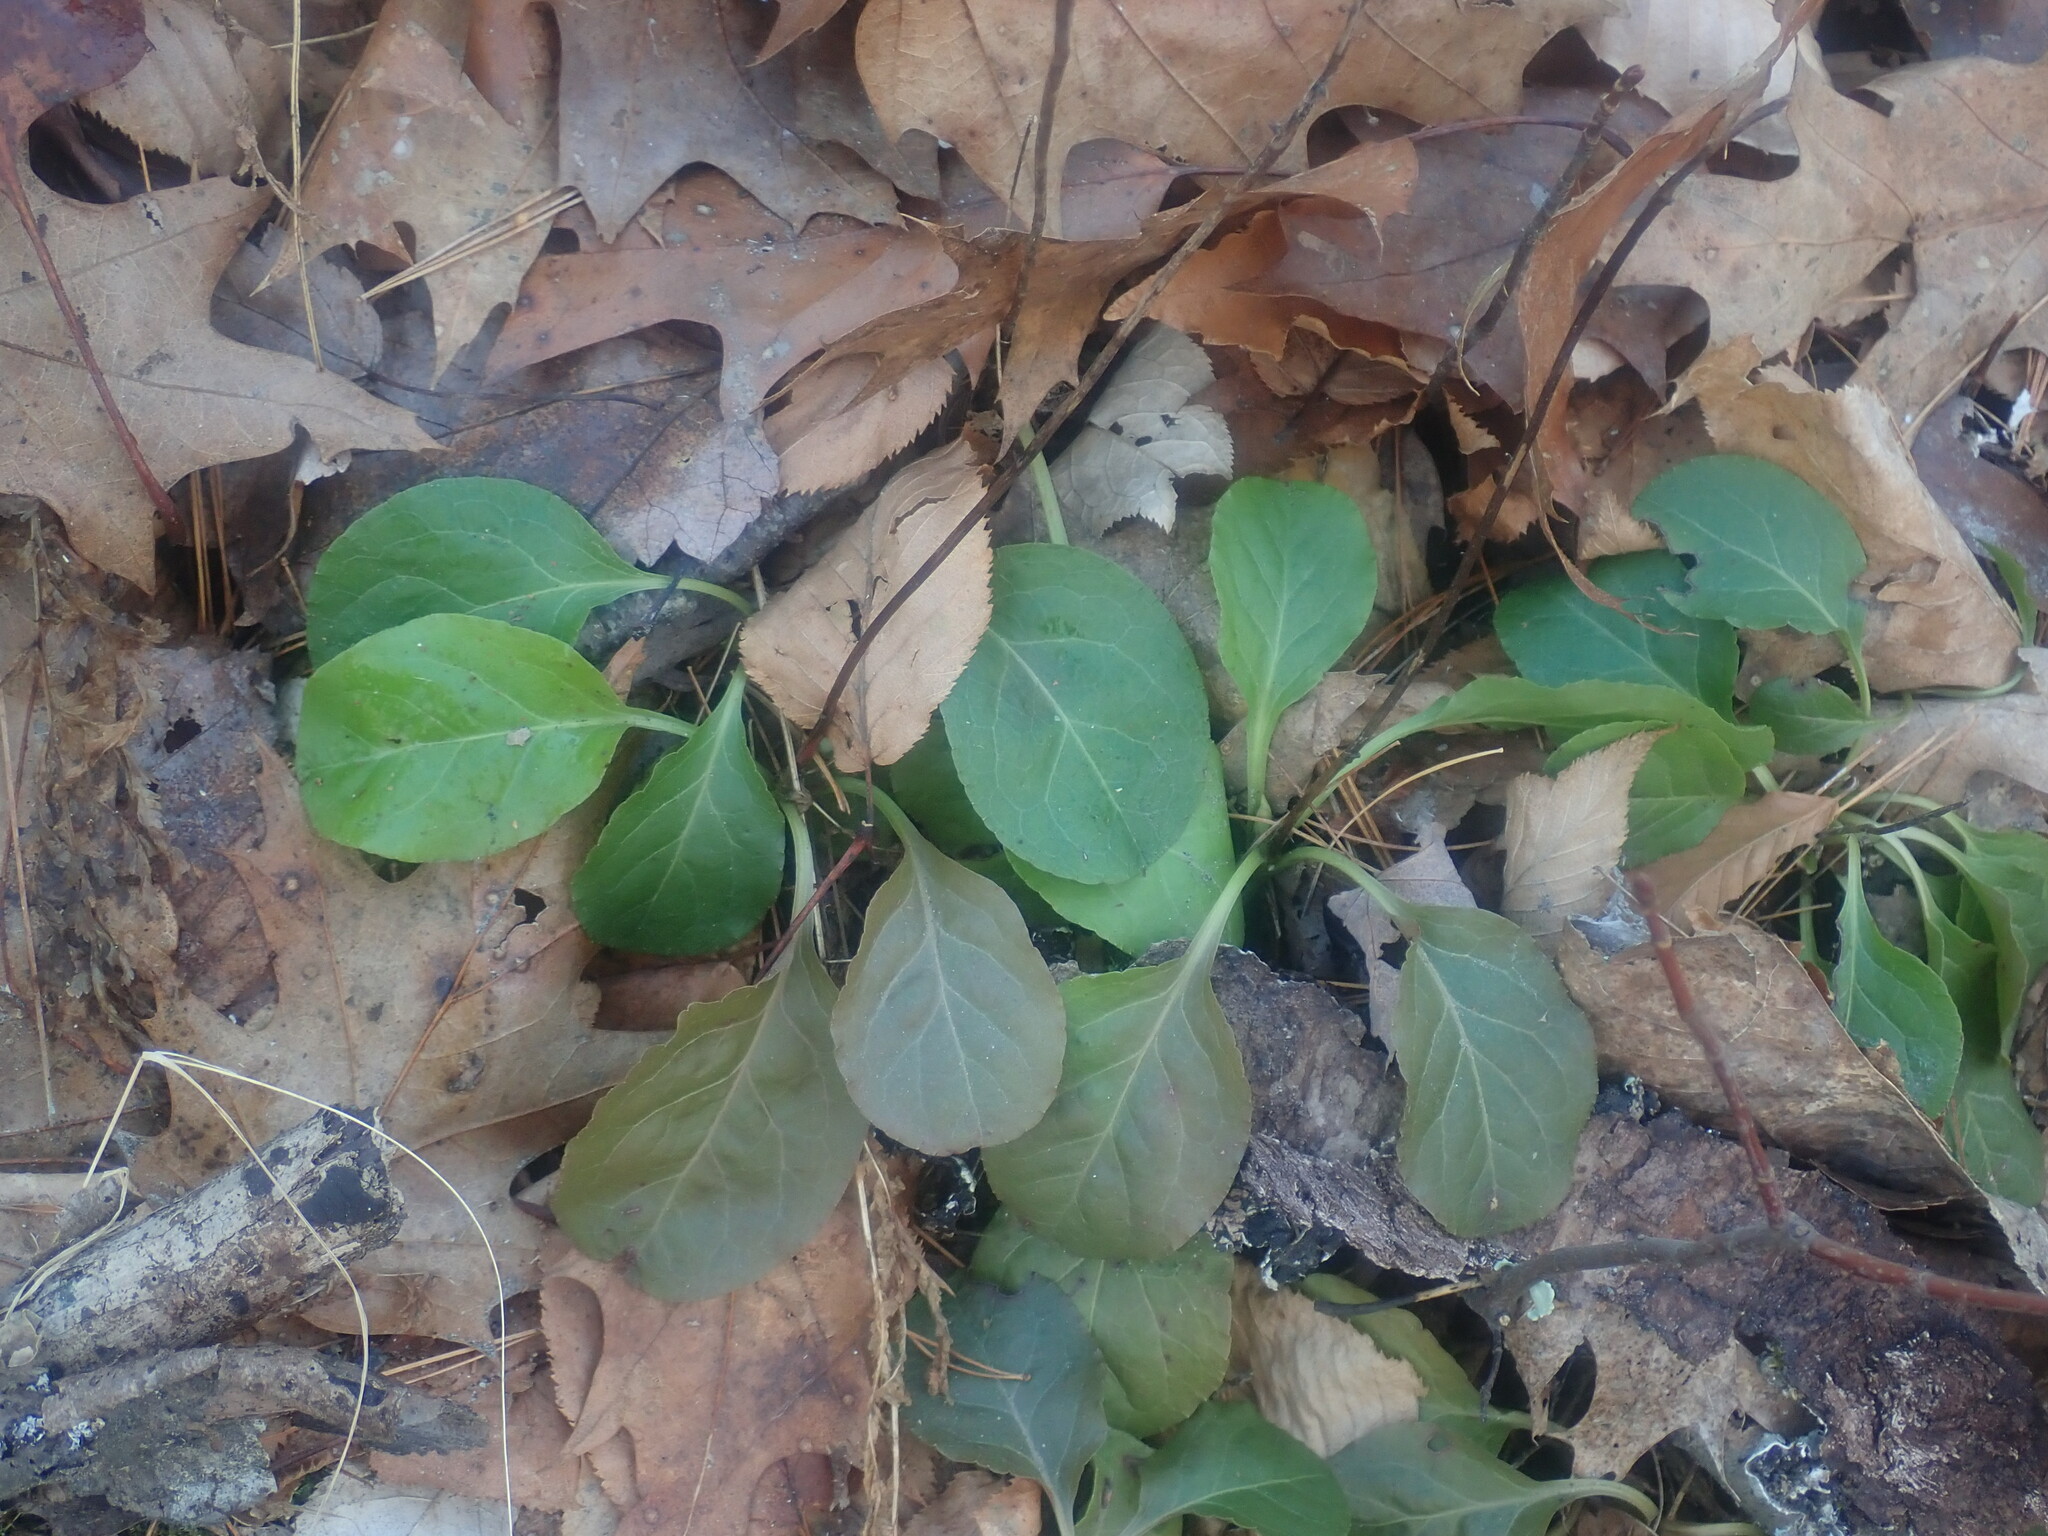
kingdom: Plantae
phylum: Tracheophyta
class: Magnoliopsida
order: Ericales
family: Ericaceae
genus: Pyrola
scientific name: Pyrola elliptica
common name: Shinleaf
